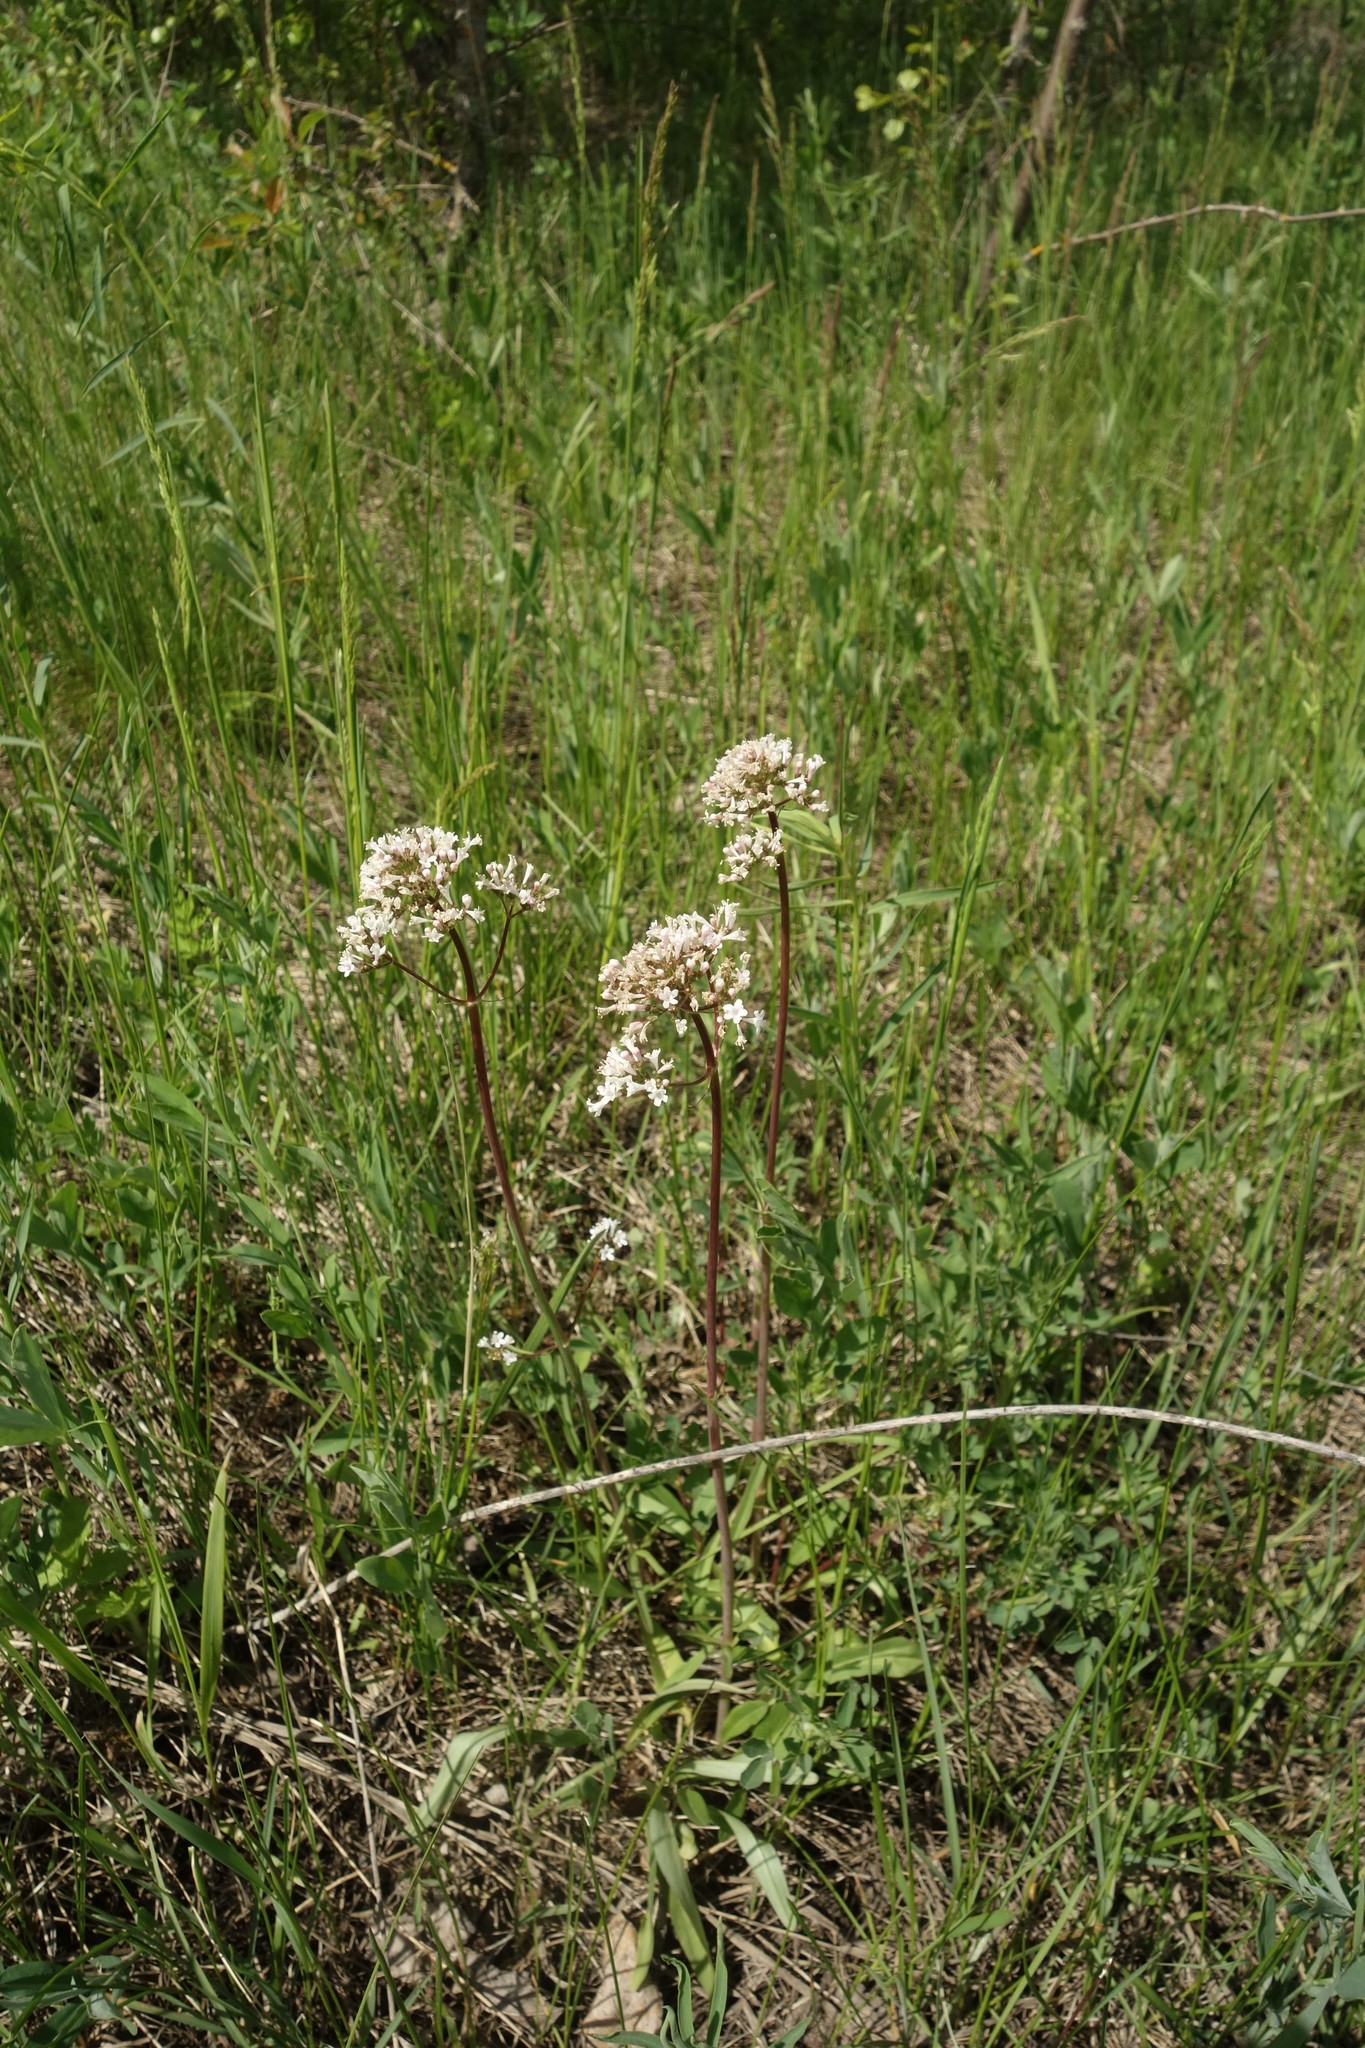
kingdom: Plantae
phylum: Tracheophyta
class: Magnoliopsida
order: Dipsacales
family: Caprifoliaceae
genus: Valeriana
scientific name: Valeriana tuberosa
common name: Tuberous valerian
